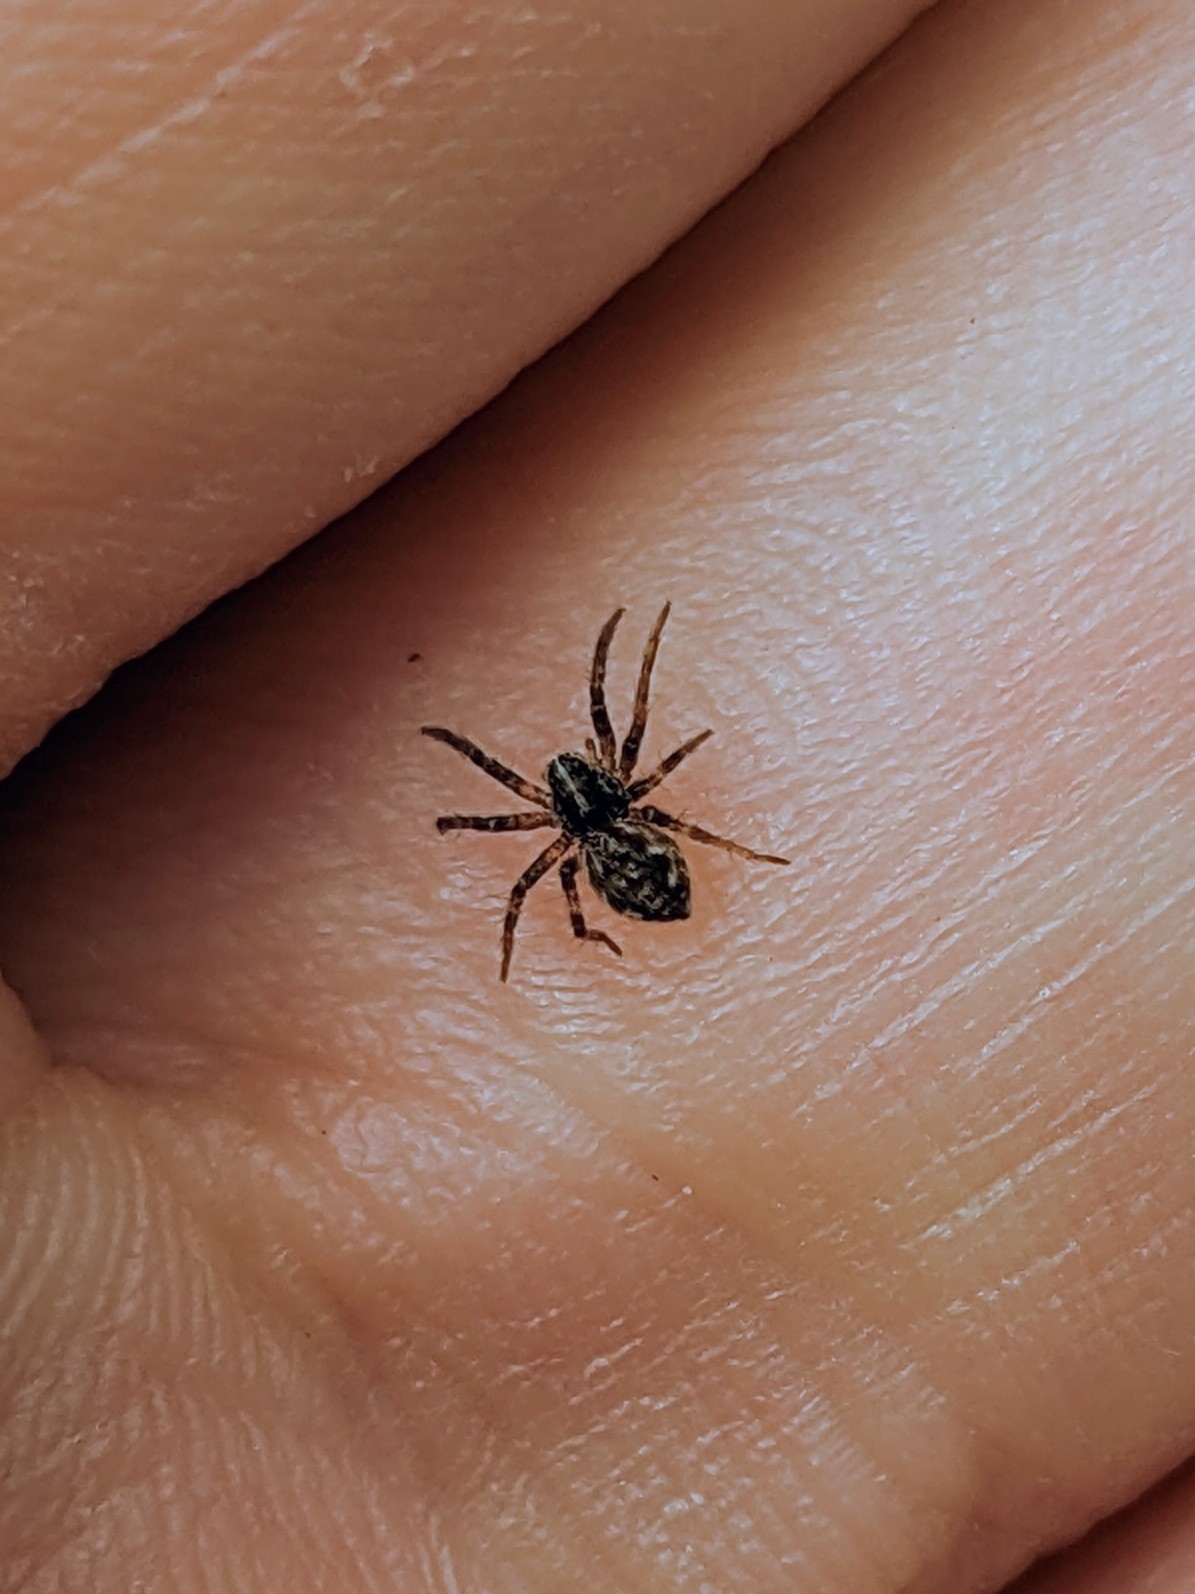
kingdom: Animalia
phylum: Arthropoda
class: Arachnida
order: Araneae
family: Pisauridae
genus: Pisaura
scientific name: Pisaura mirabilis
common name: Tent spider
